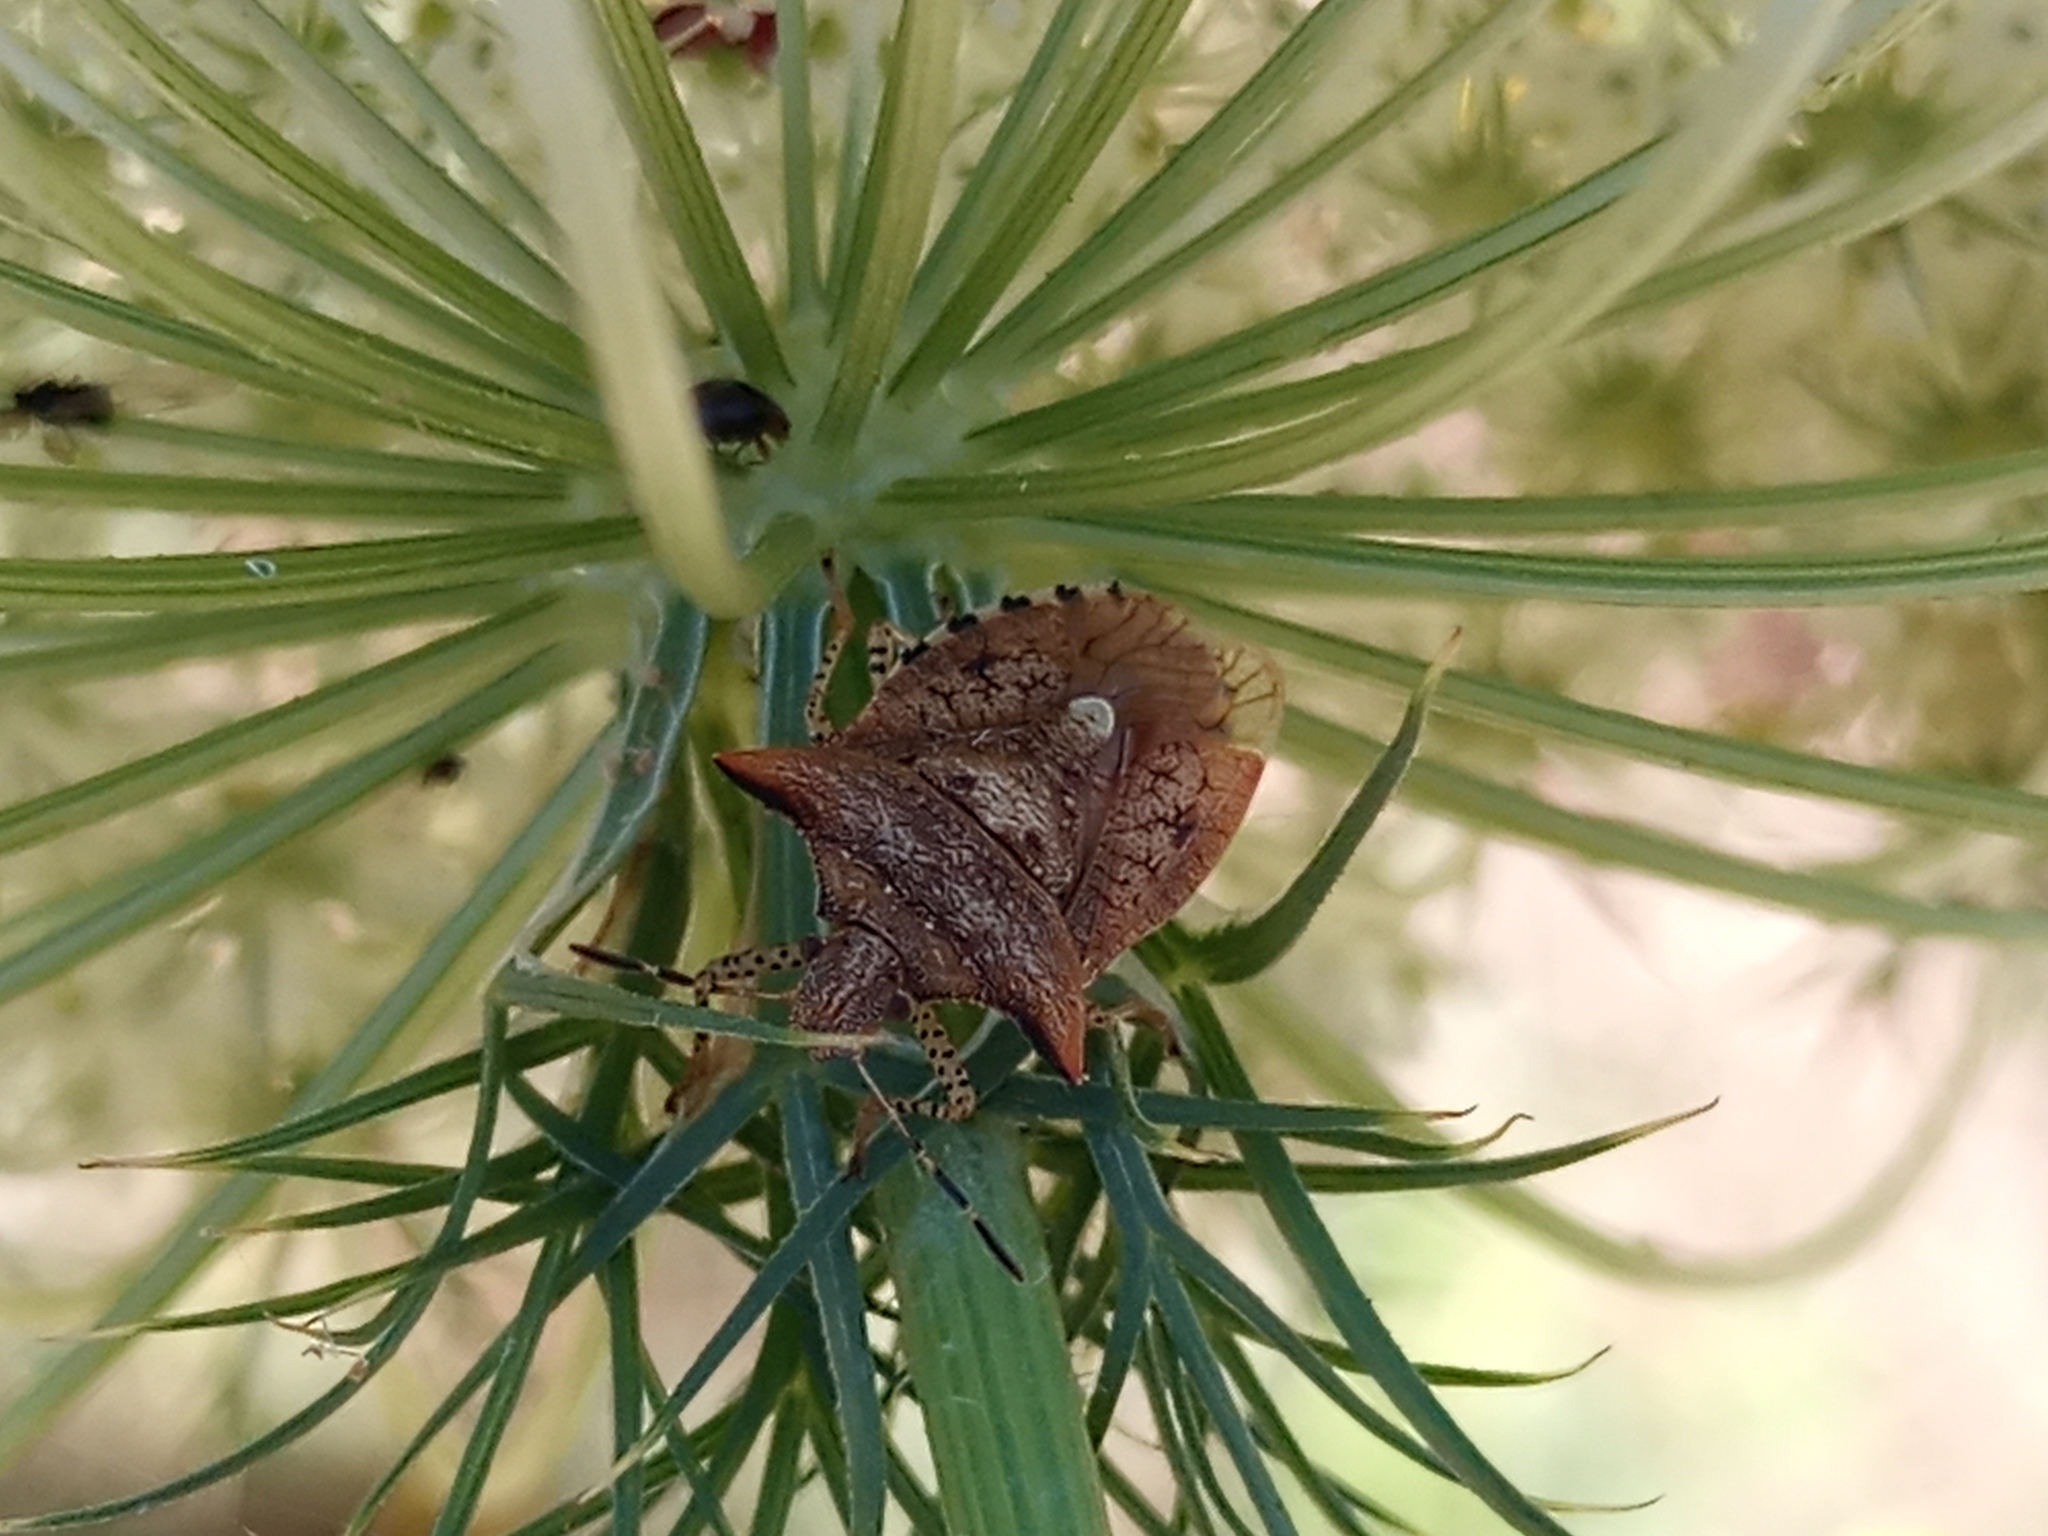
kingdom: Animalia
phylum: Arthropoda
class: Insecta
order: Hemiptera
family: Pentatomidae
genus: Adustonotus
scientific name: Adustonotus
